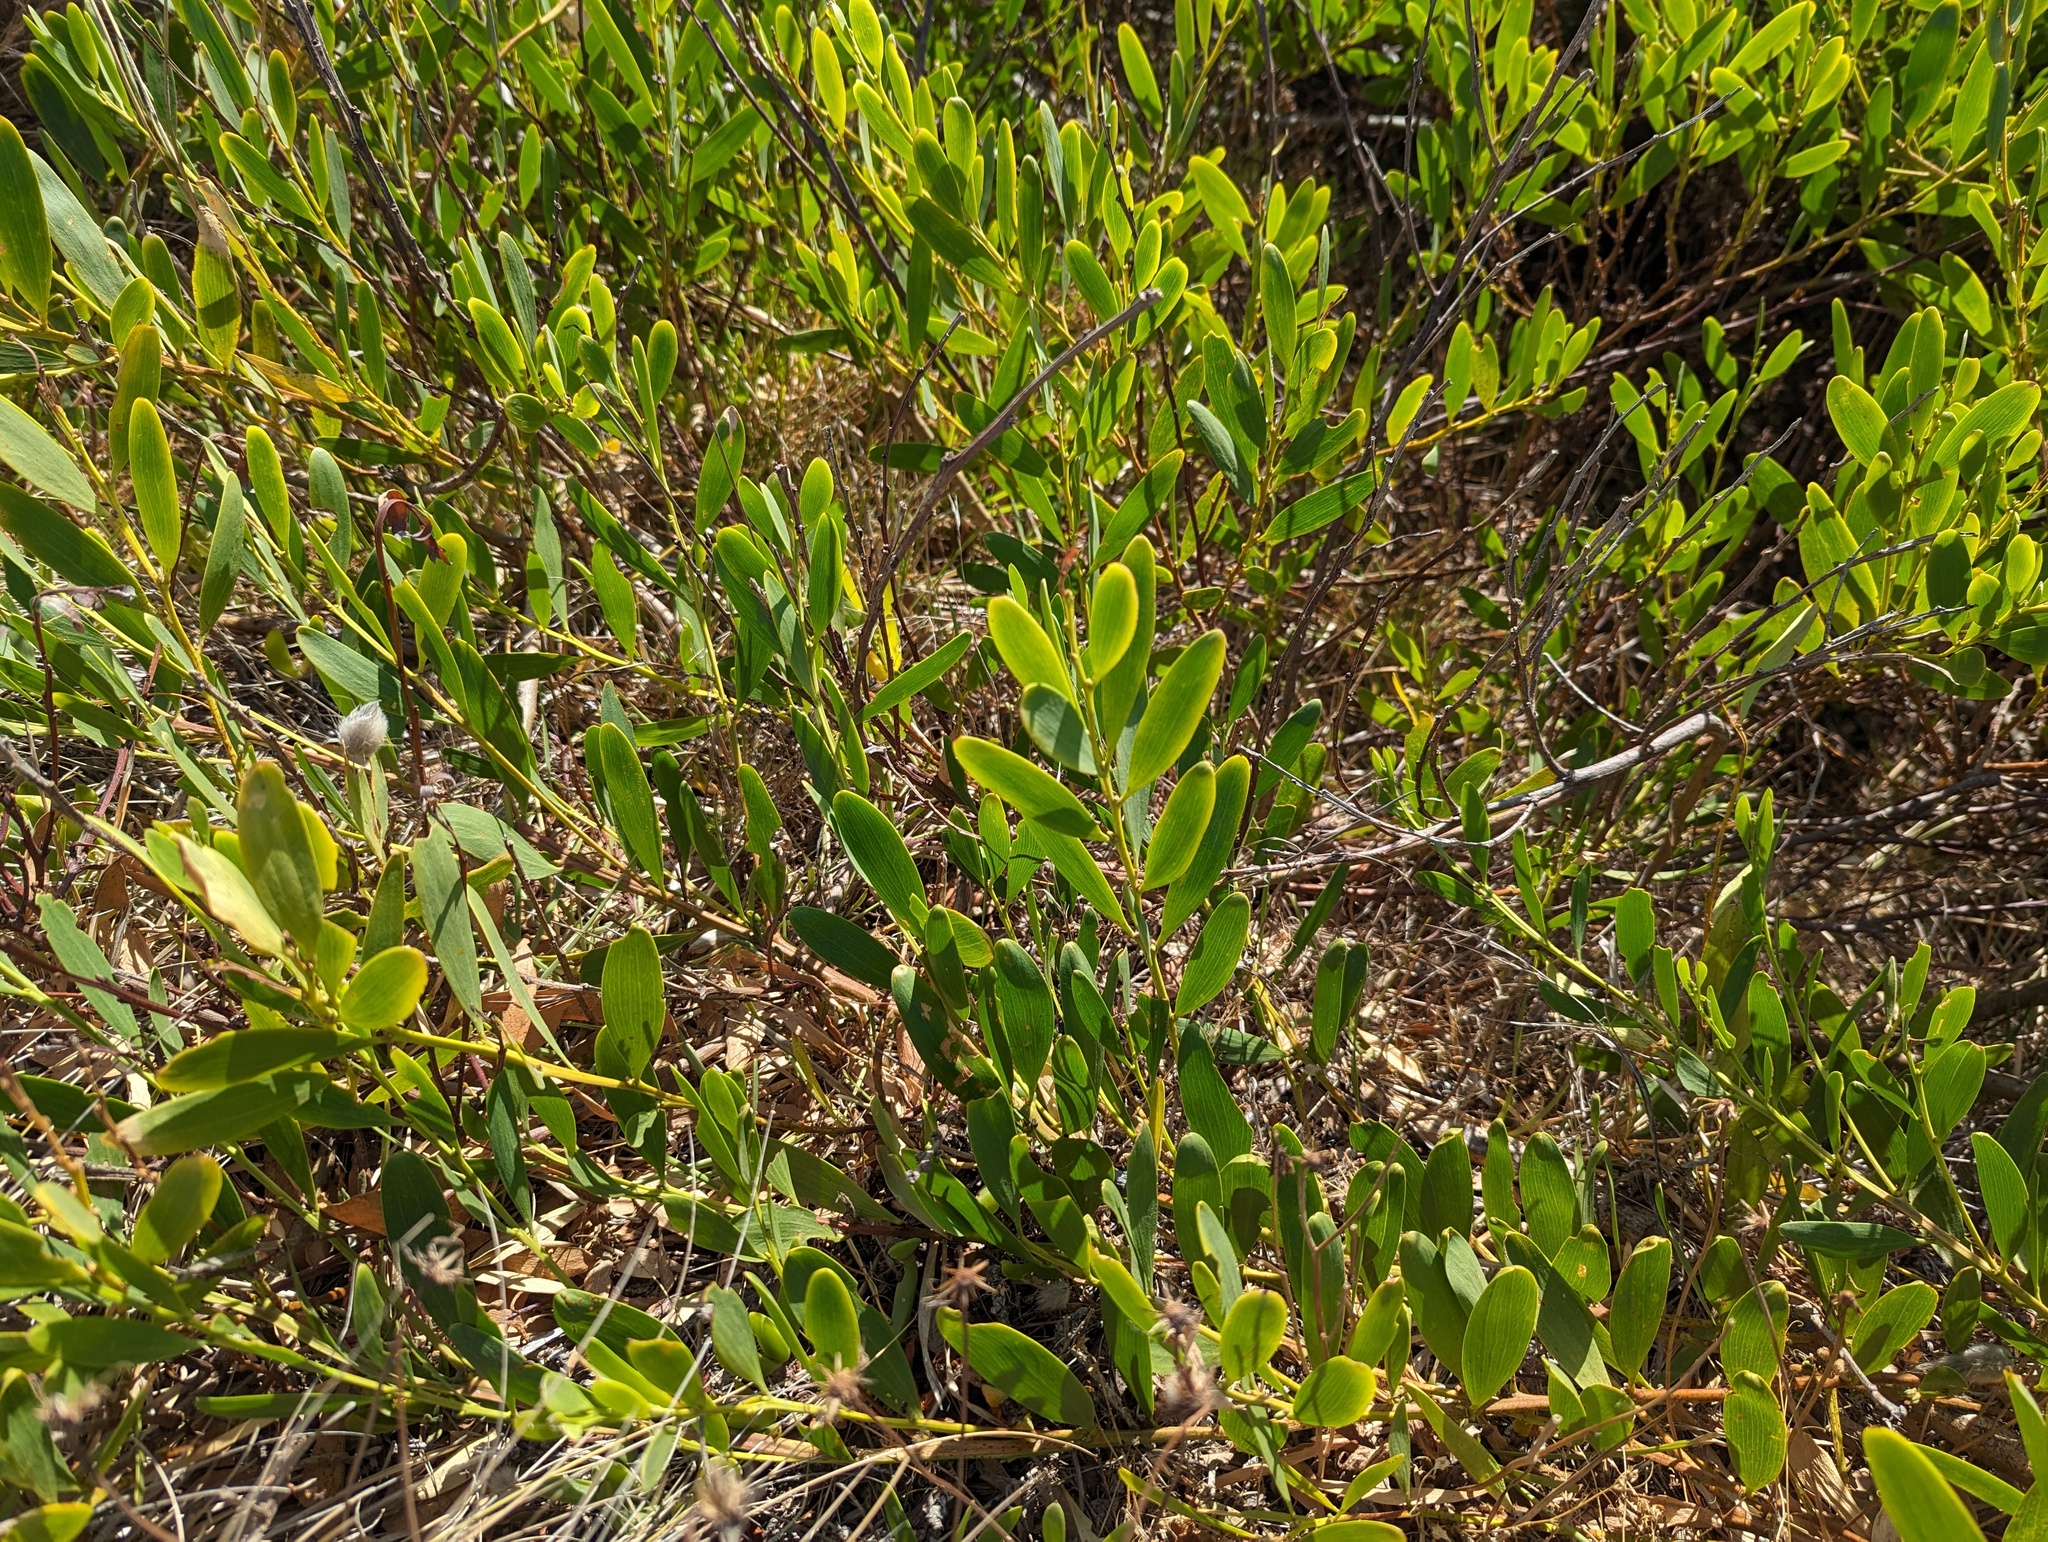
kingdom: Plantae
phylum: Tracheophyta
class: Magnoliopsida
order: Fabales
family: Fabaceae
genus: Acacia
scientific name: Acacia longifolia
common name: Sydney golden wattle
